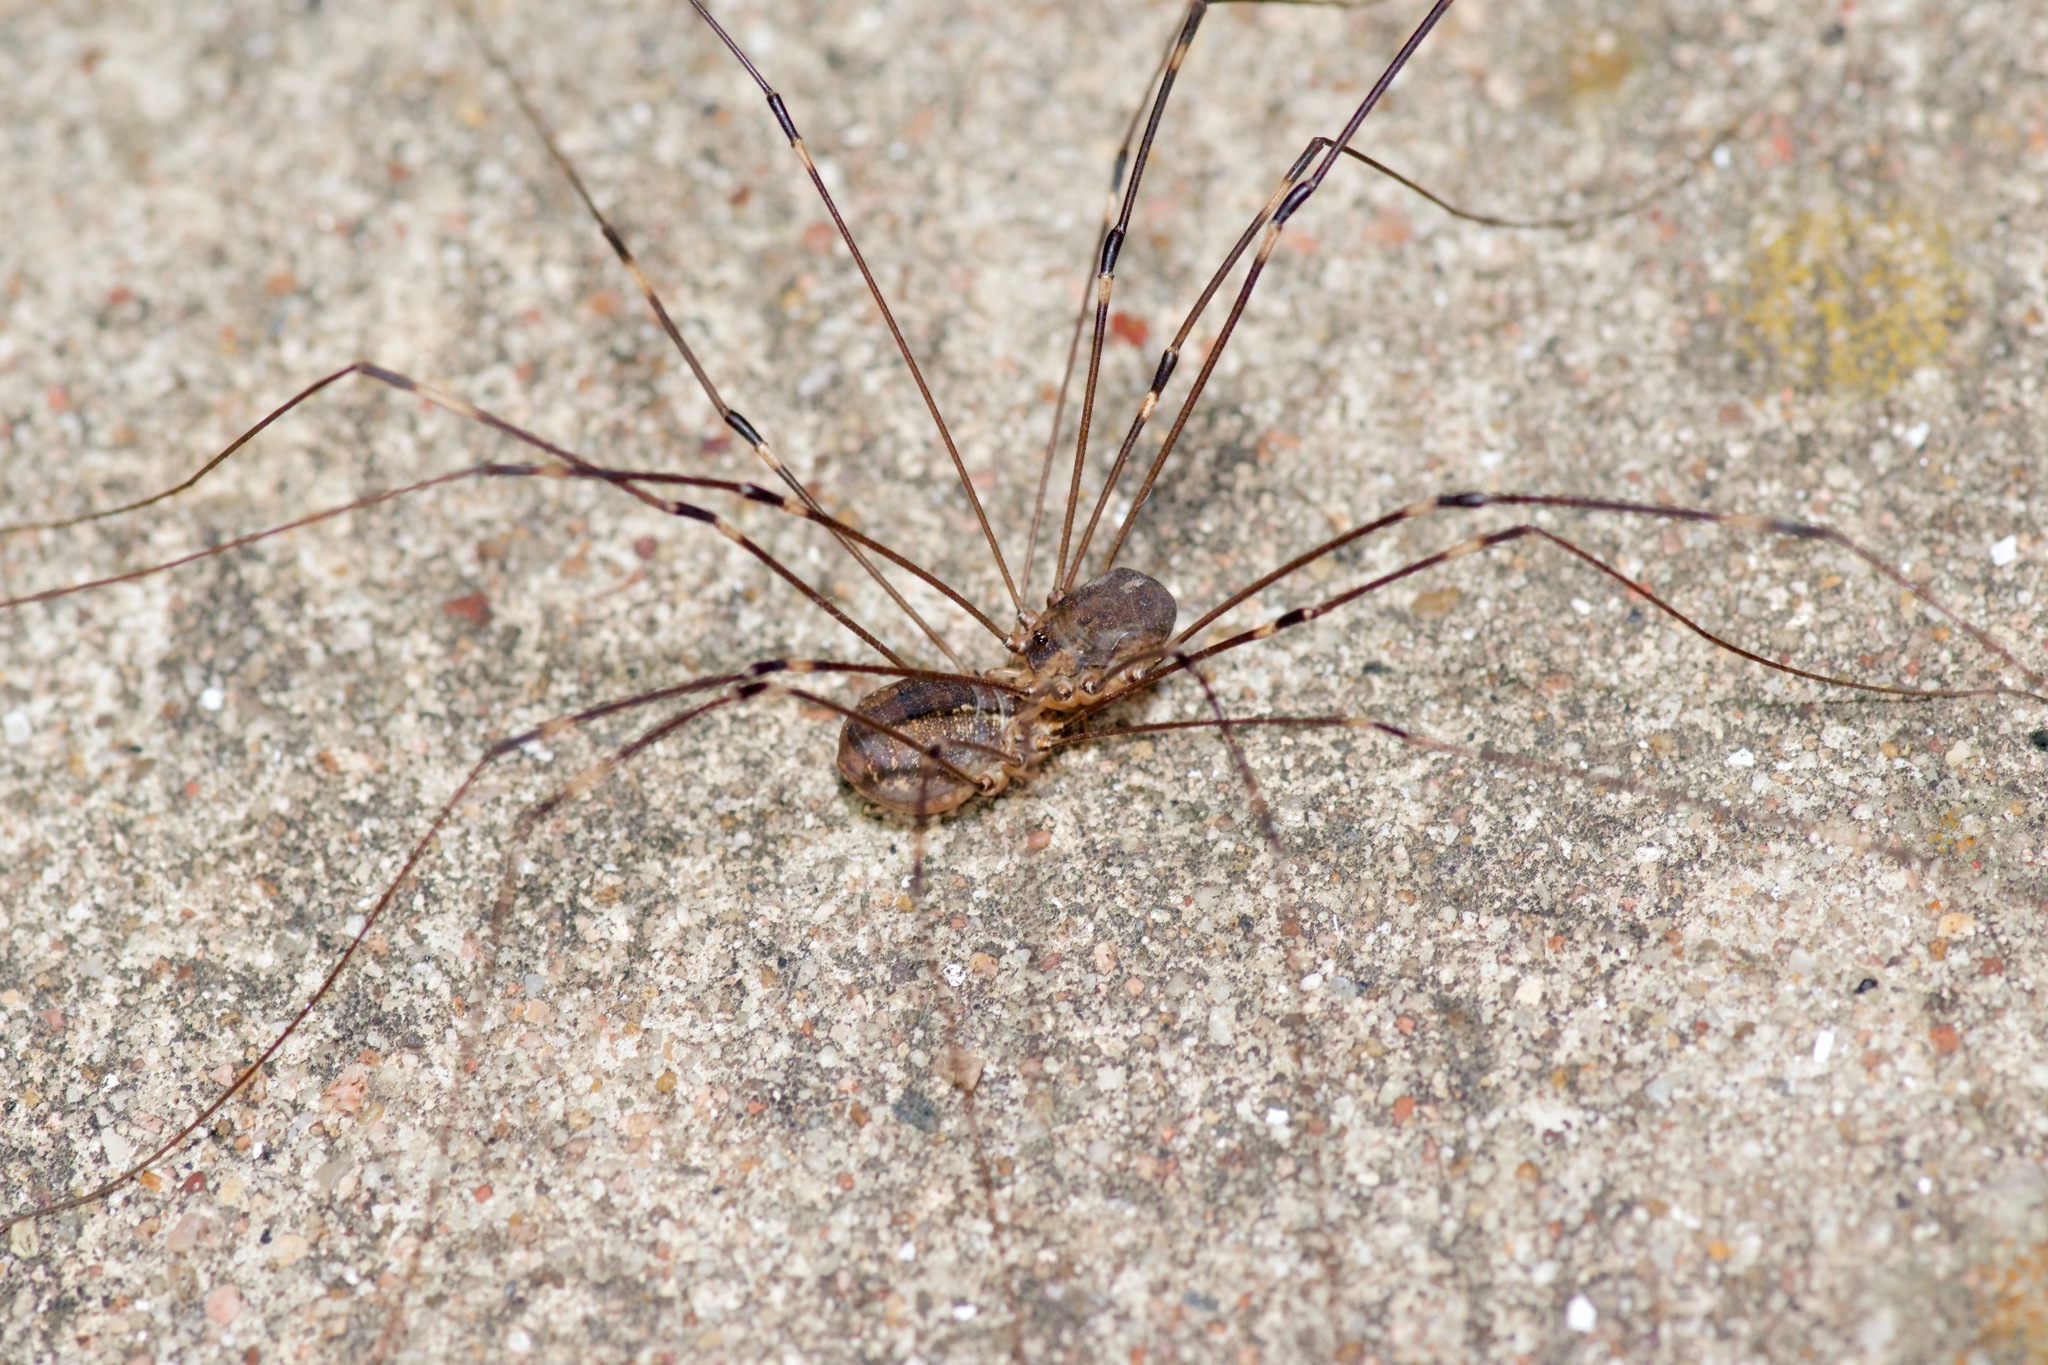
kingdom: Animalia
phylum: Arthropoda
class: Arachnida
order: Opiliones
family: Sclerosomatidae
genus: Leiobunum
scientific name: Leiobunum townsendi
